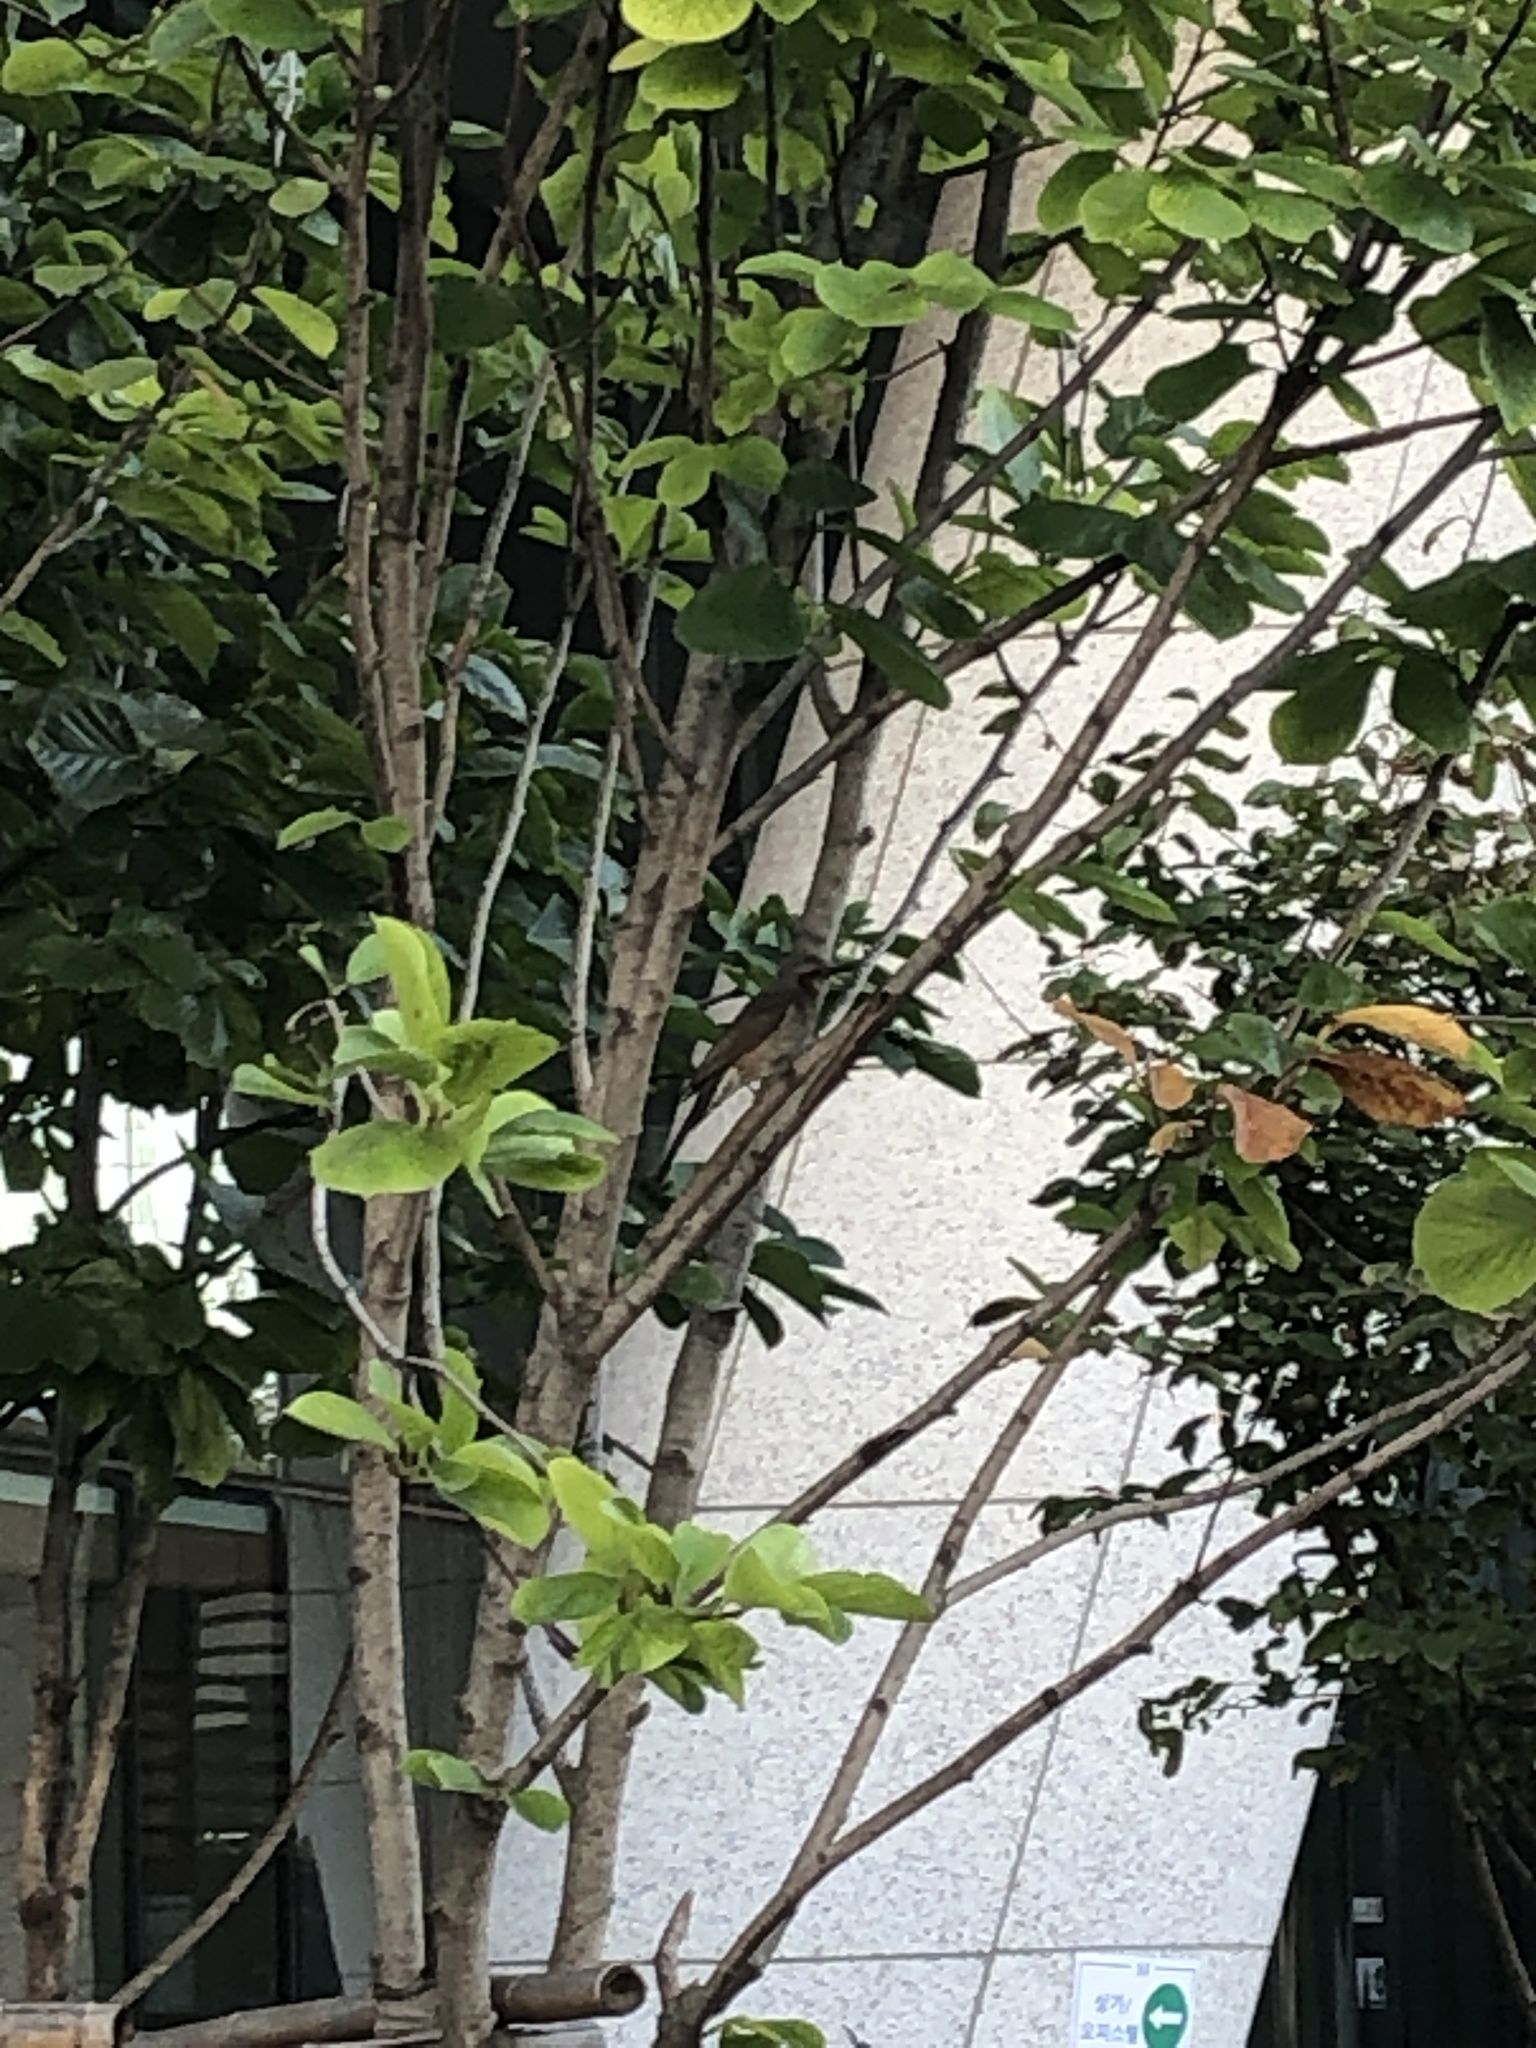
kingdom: Animalia
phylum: Chordata
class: Aves
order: Passeriformes
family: Pycnonotidae
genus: Hypsipetes
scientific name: Hypsipetes amaurotis
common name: Brown-eared bulbul
